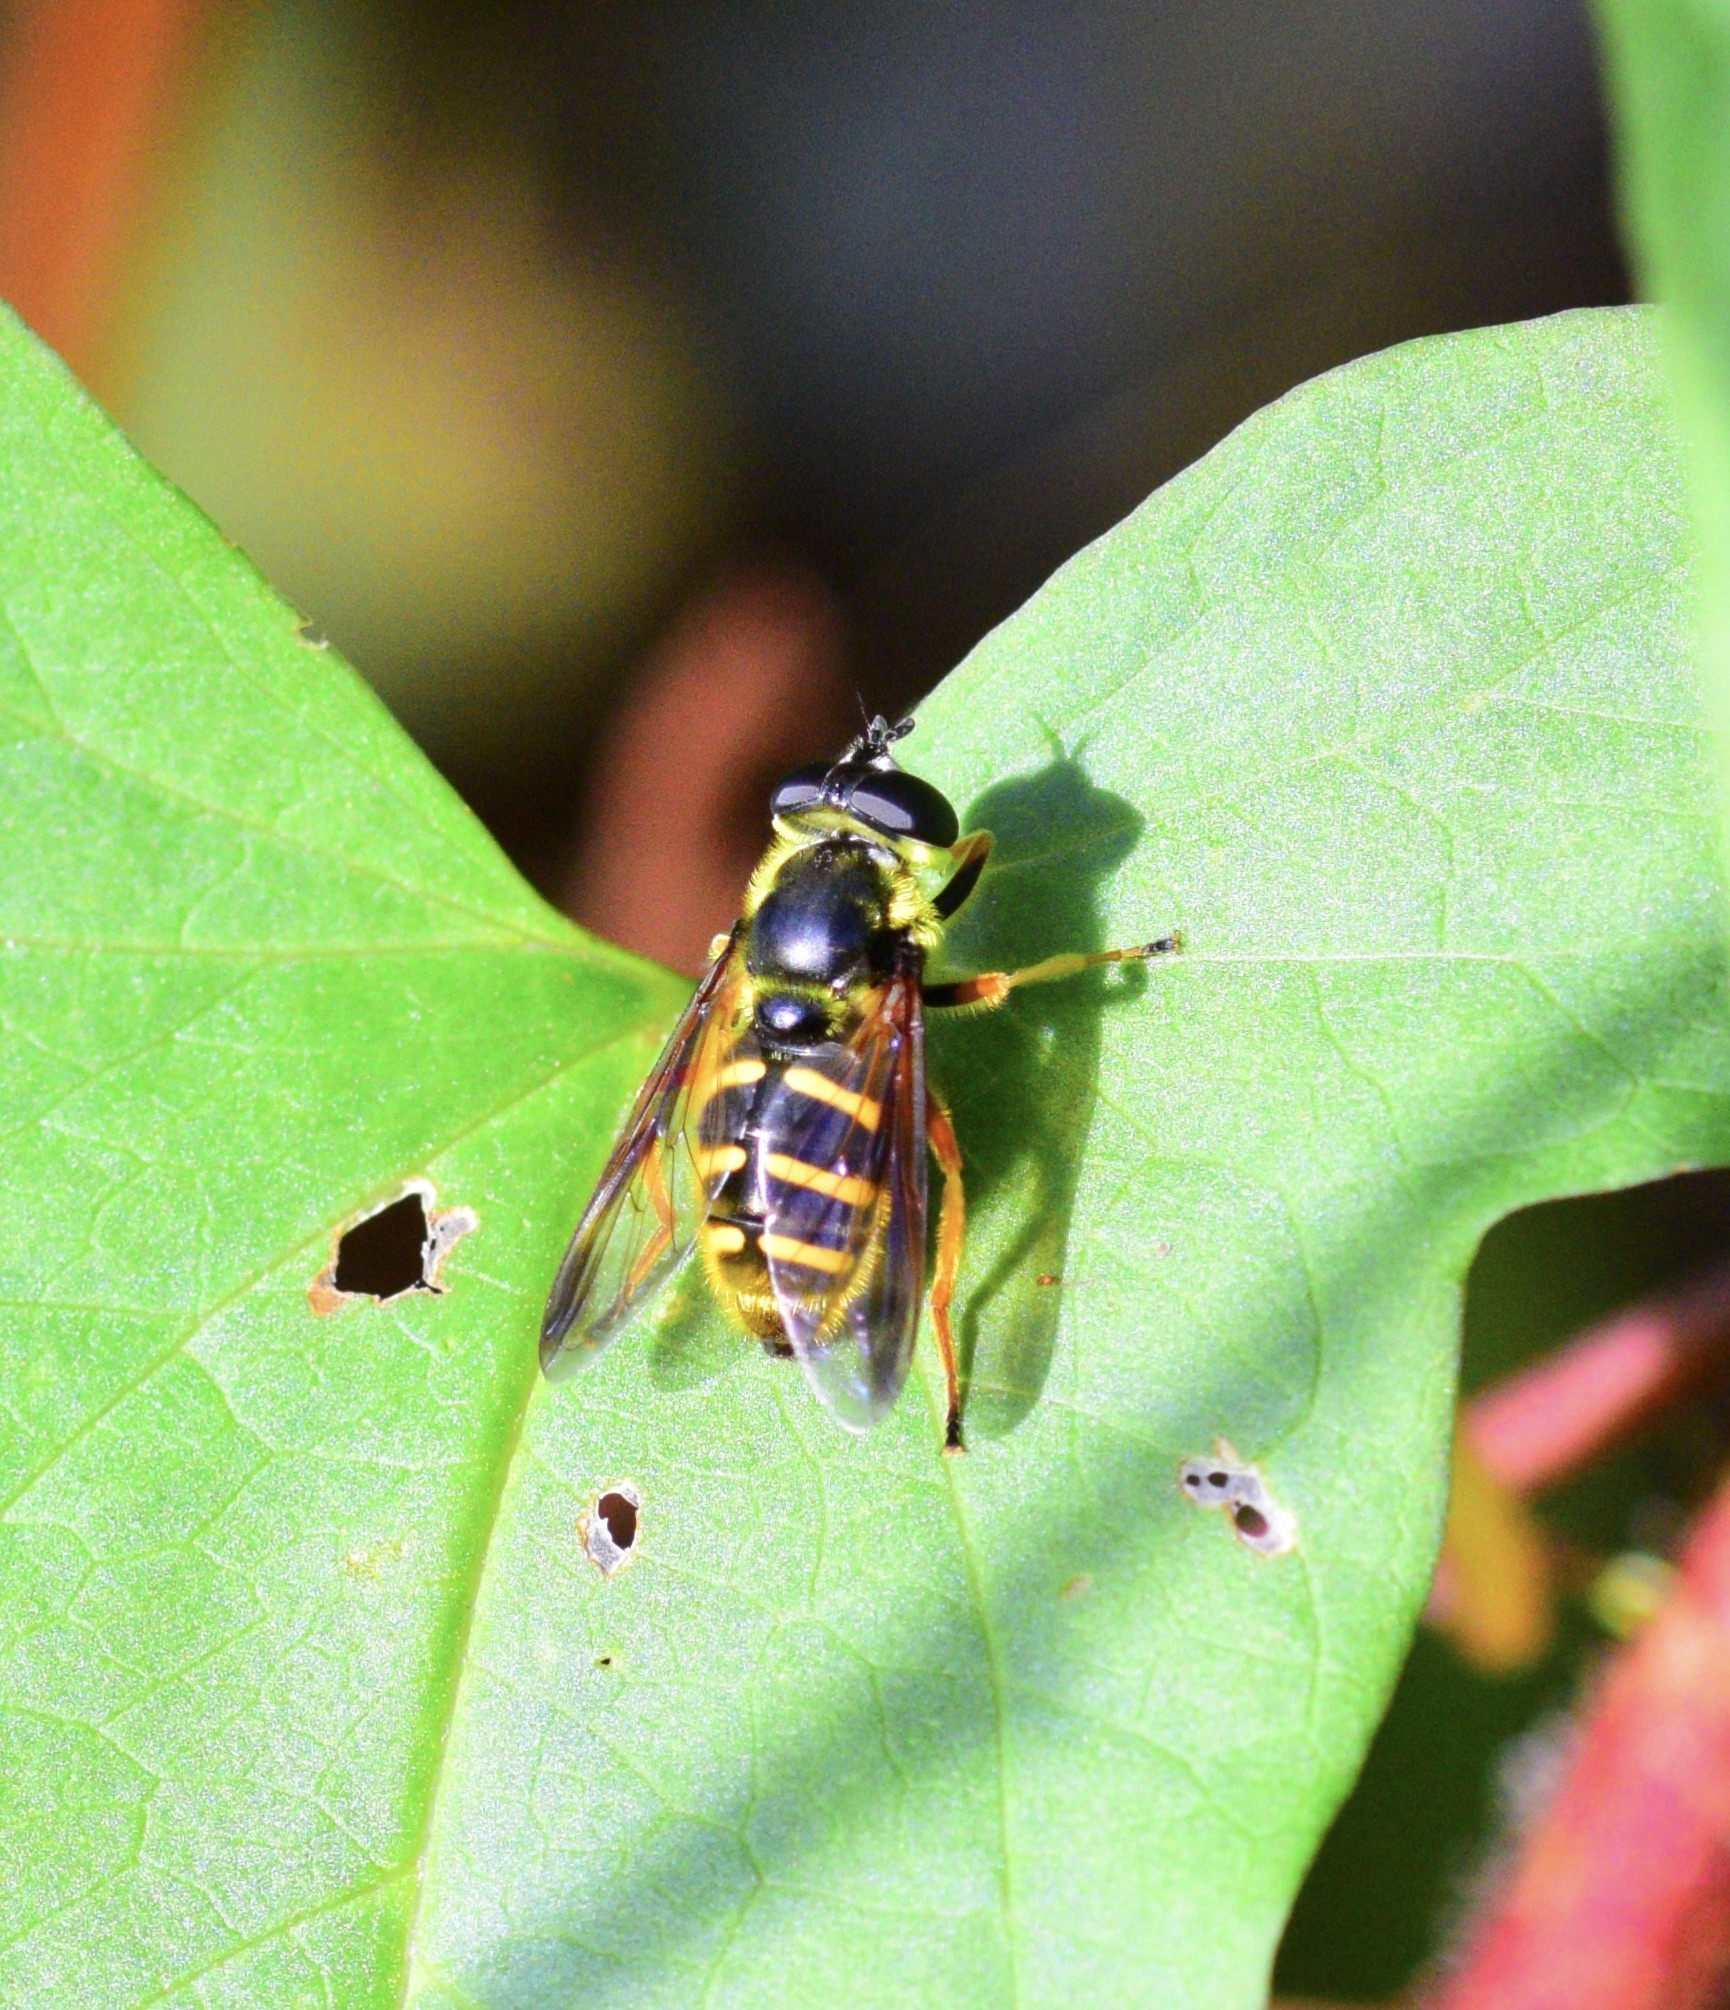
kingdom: Animalia
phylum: Arthropoda
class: Insecta
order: Diptera
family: Syrphidae
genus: Sericomyia
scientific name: Sericomyia chrysotoxoides
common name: Oblique-banded pond fly
